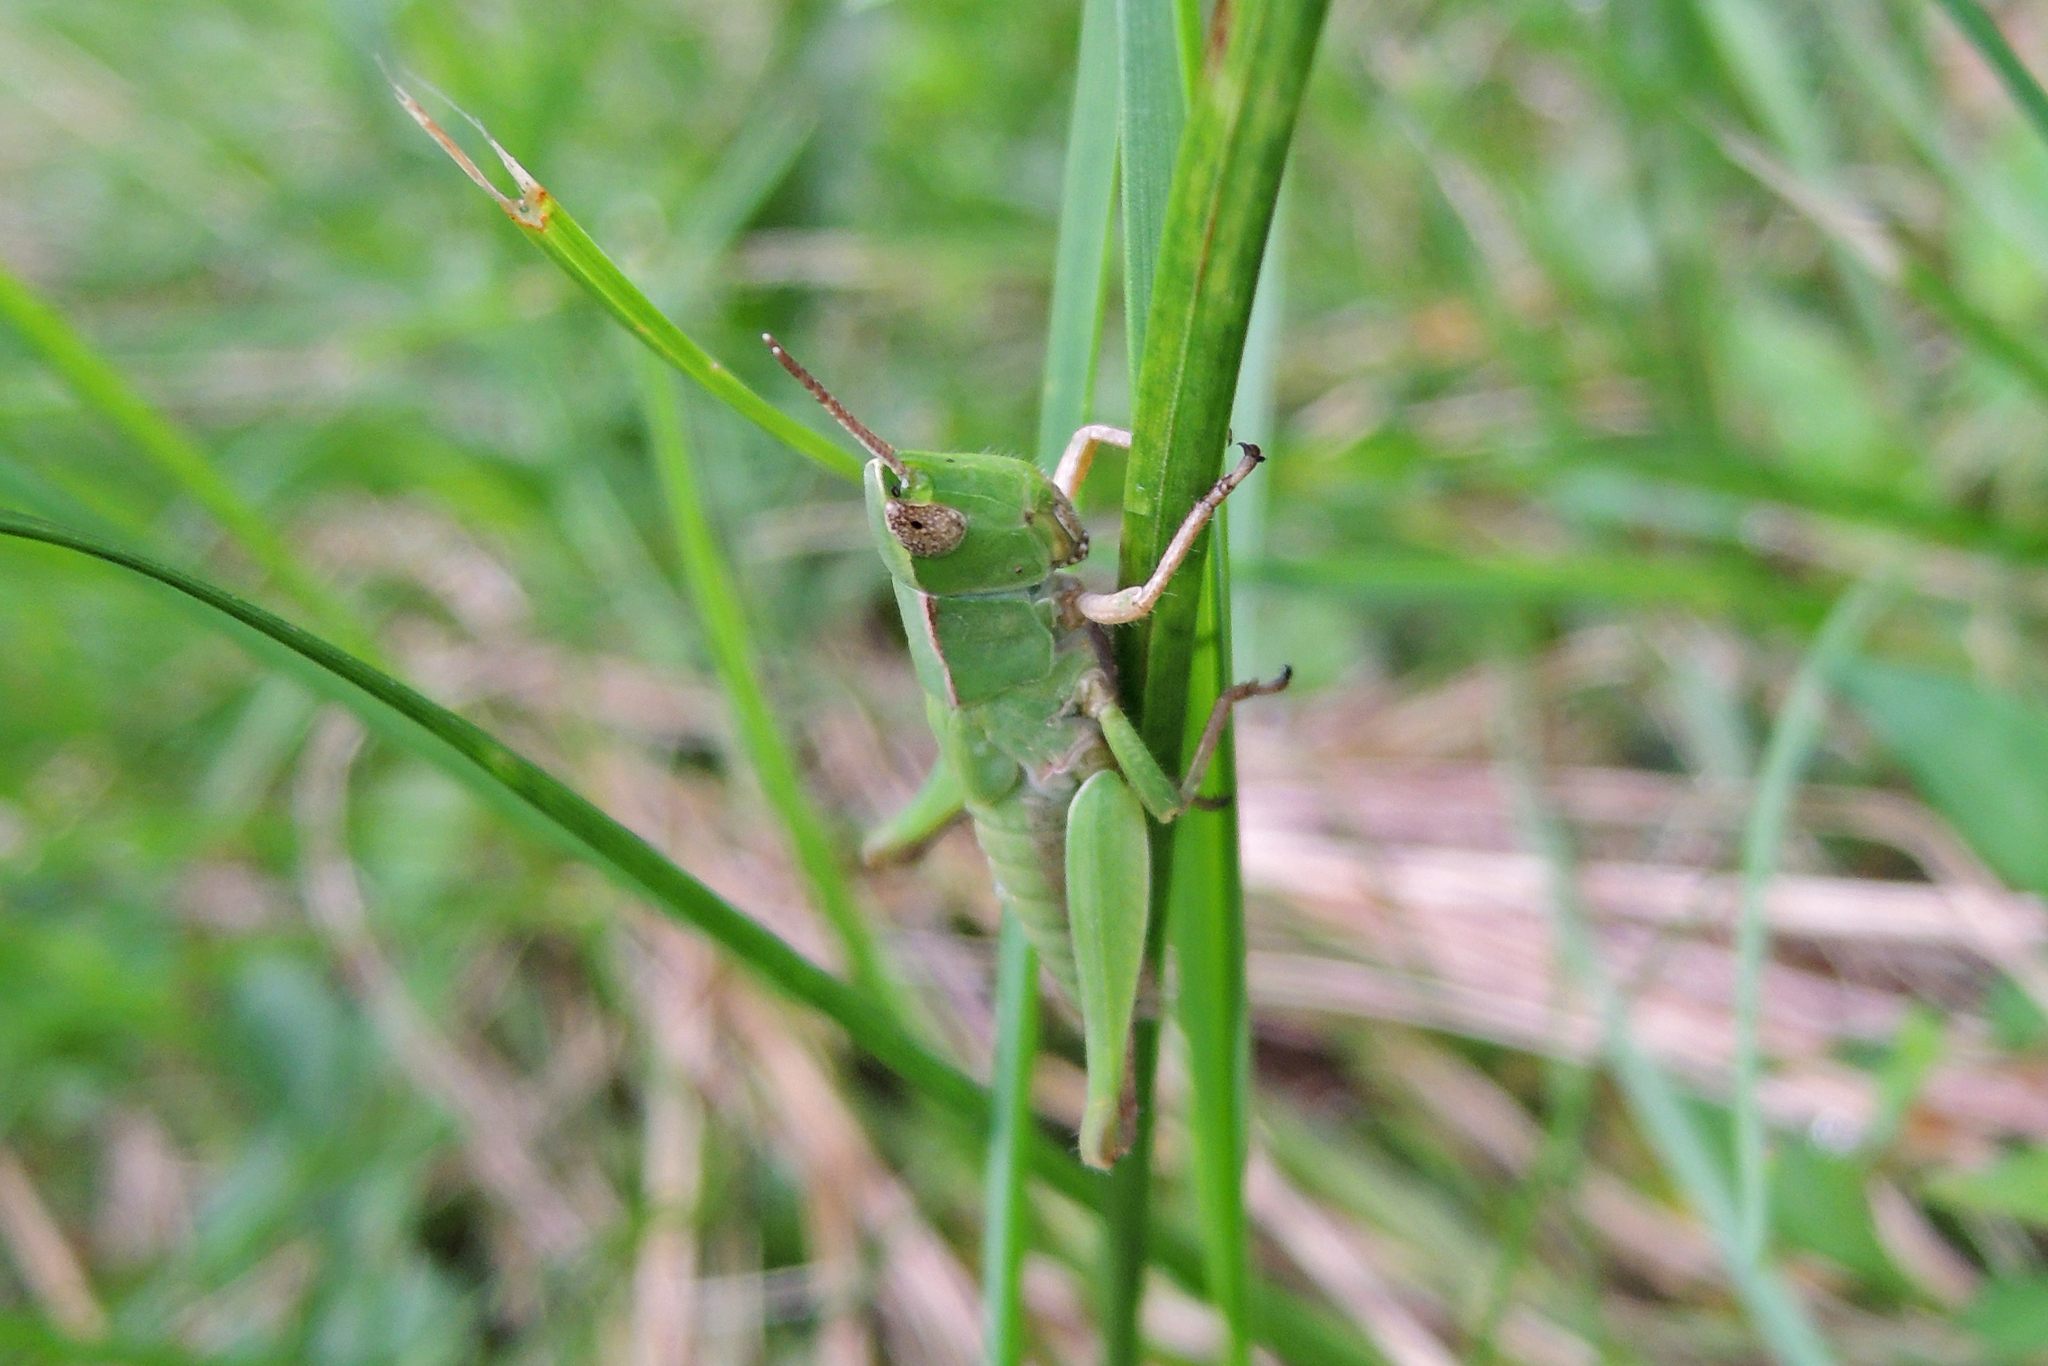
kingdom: Animalia
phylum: Arthropoda
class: Insecta
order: Orthoptera
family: Acrididae
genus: Dichromorpha
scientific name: Dichromorpha viridis
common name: Short-winged green grasshopper
